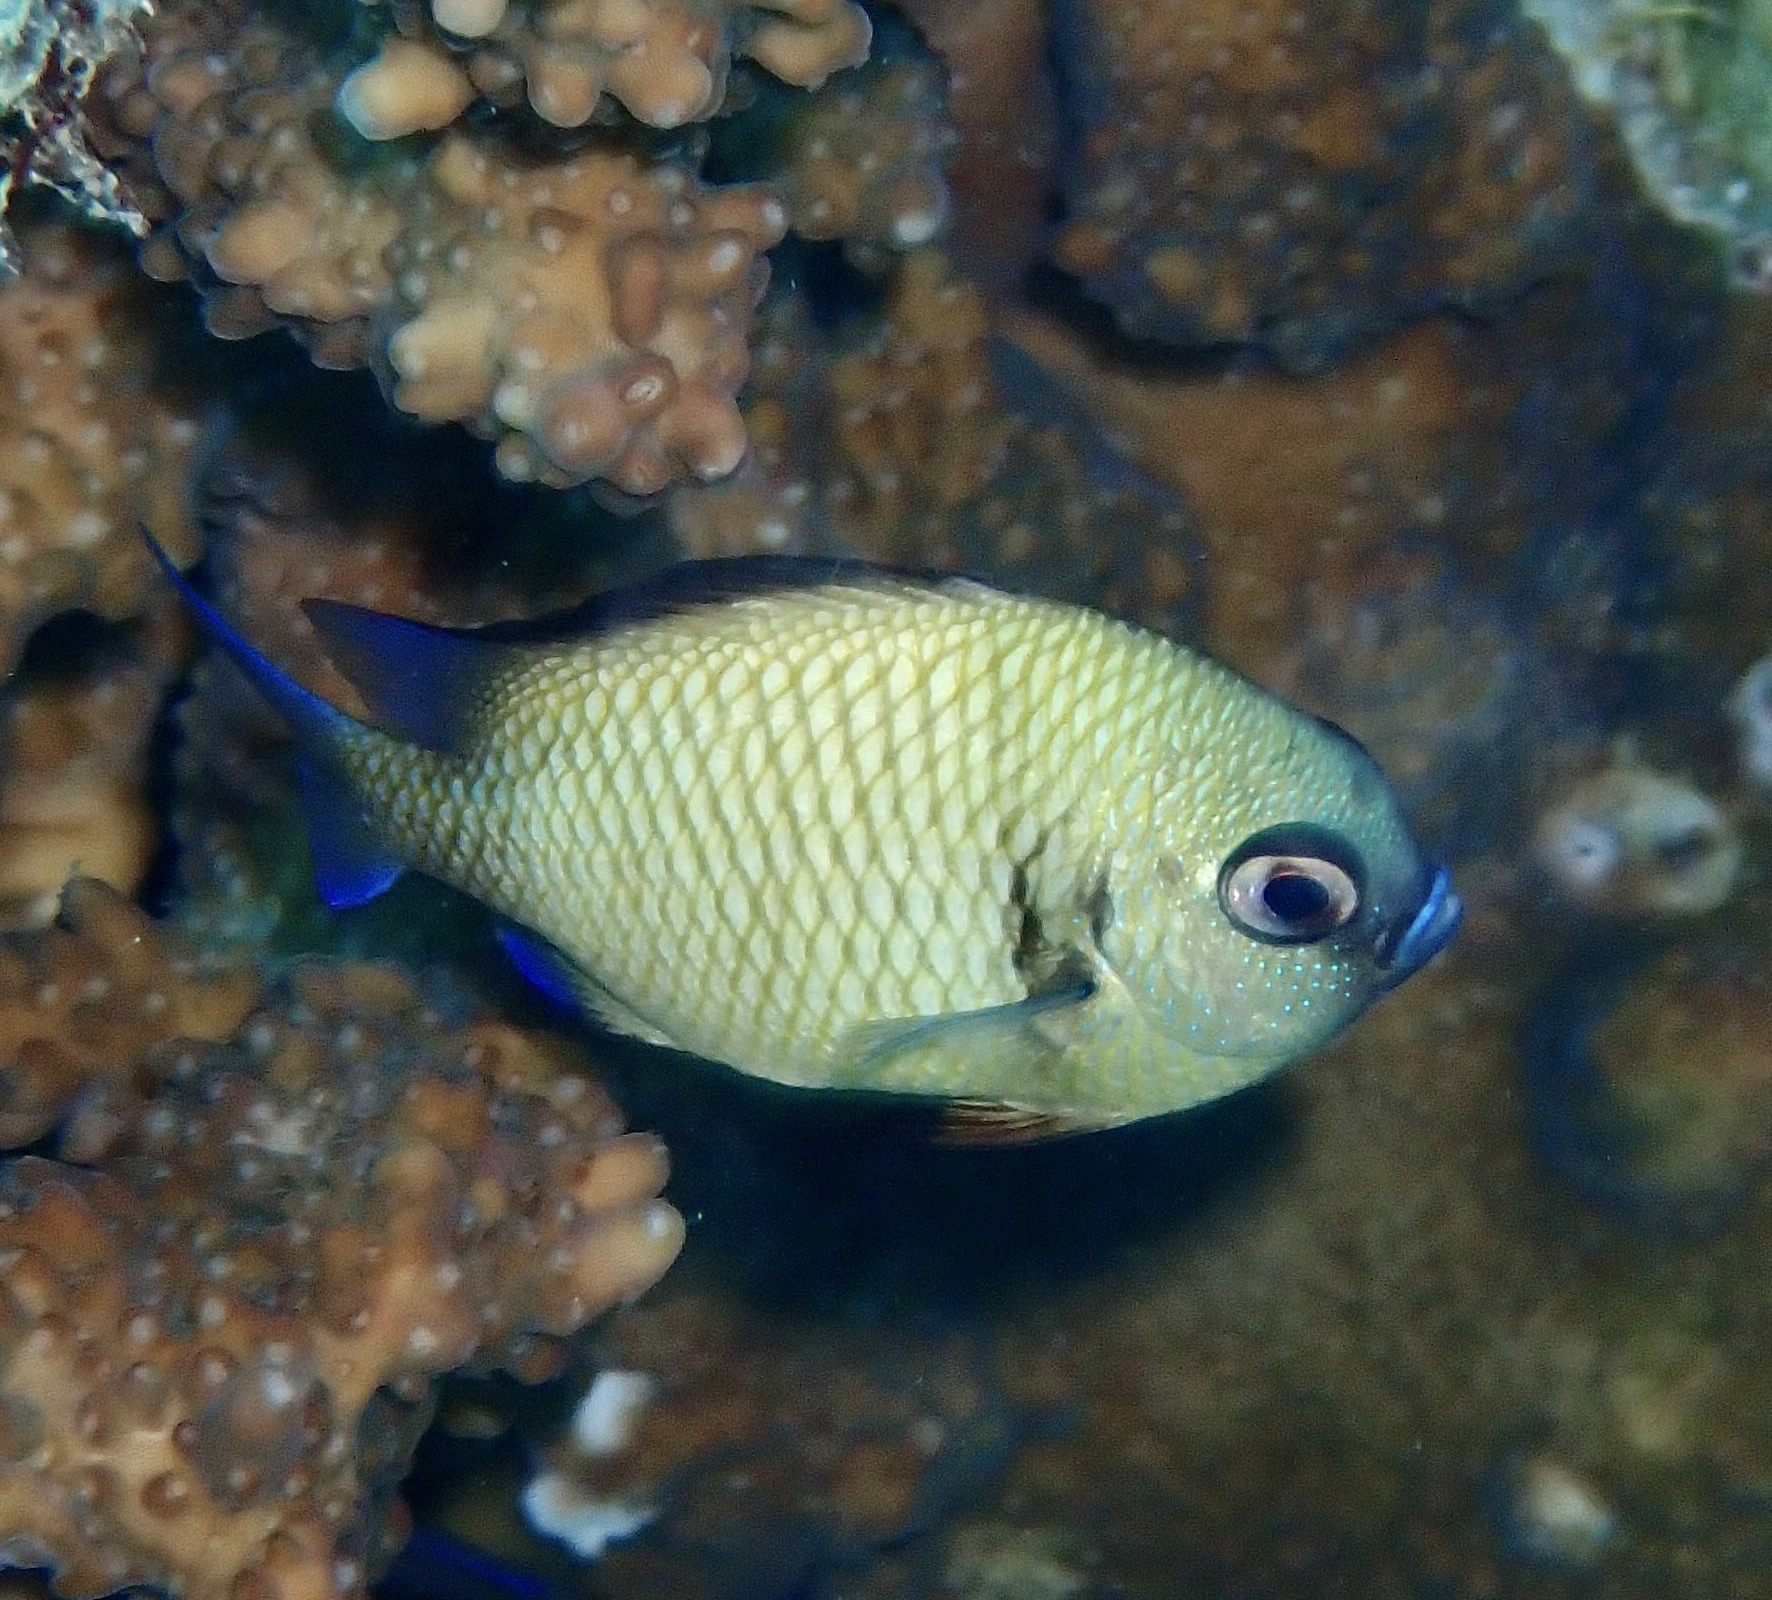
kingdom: Animalia
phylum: Chordata
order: Perciformes
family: Pomacentridae
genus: Dascyllus
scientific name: Dascyllus reticulatus
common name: Reticulated dascyllus
